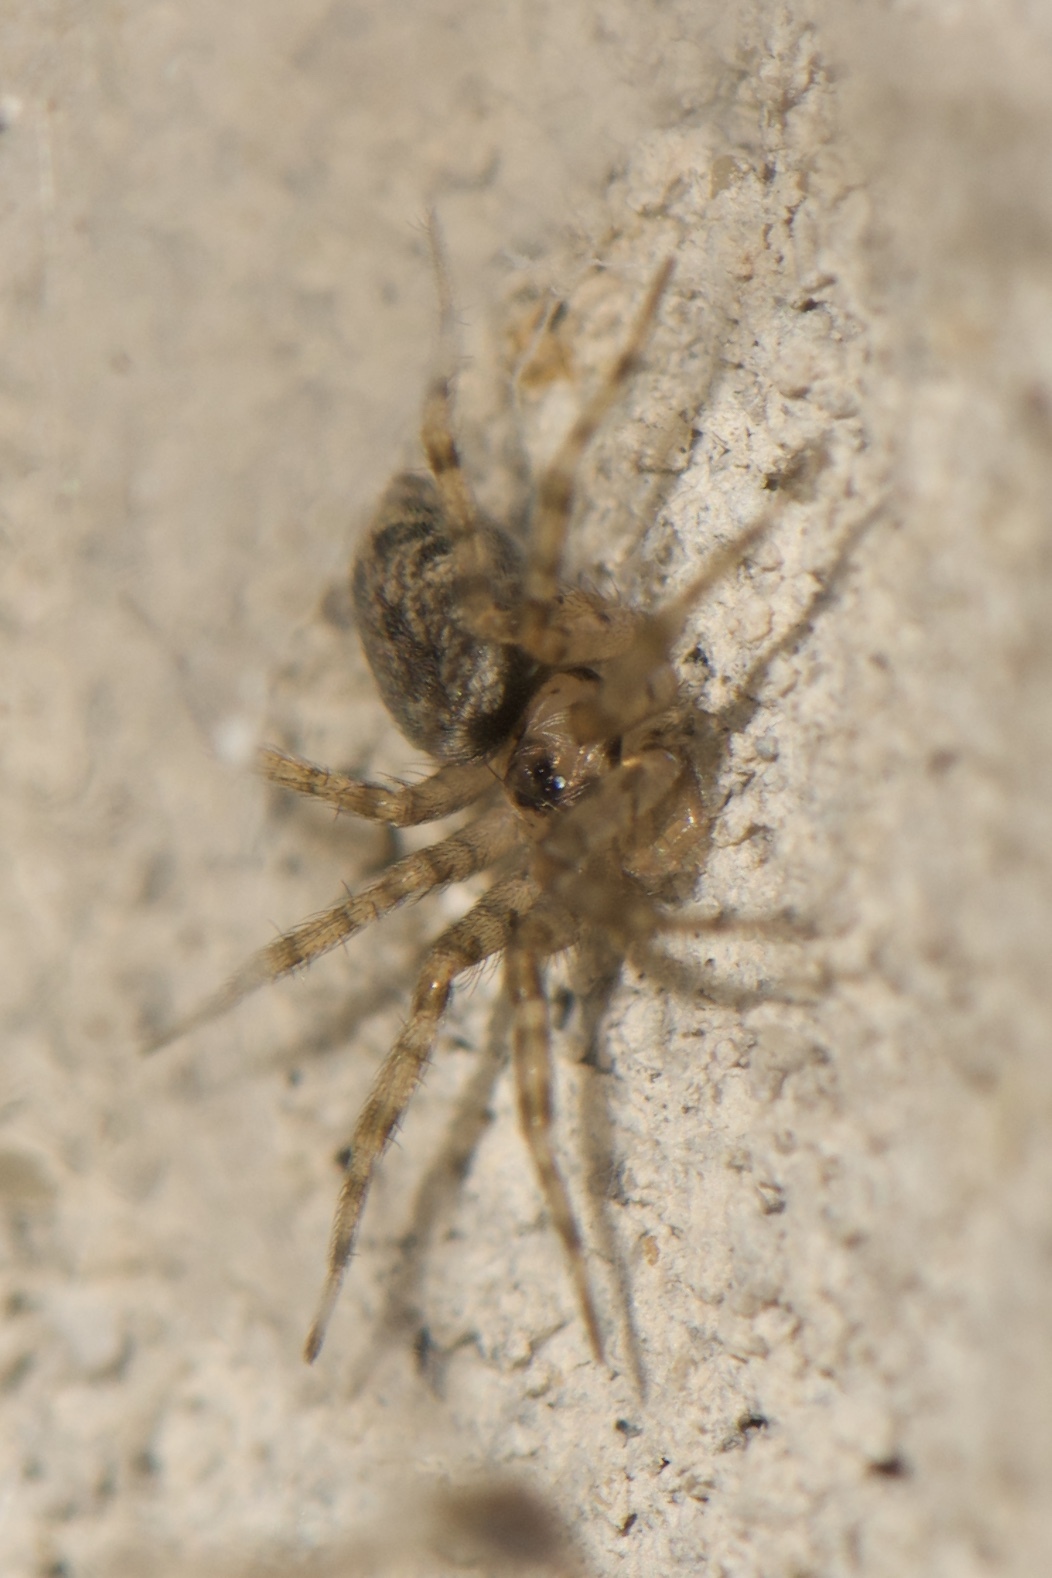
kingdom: Animalia
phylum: Arthropoda
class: Arachnida
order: Araneae
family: Oecobiidae
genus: Oecobius
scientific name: Oecobius navus
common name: Flatmesh weaver
